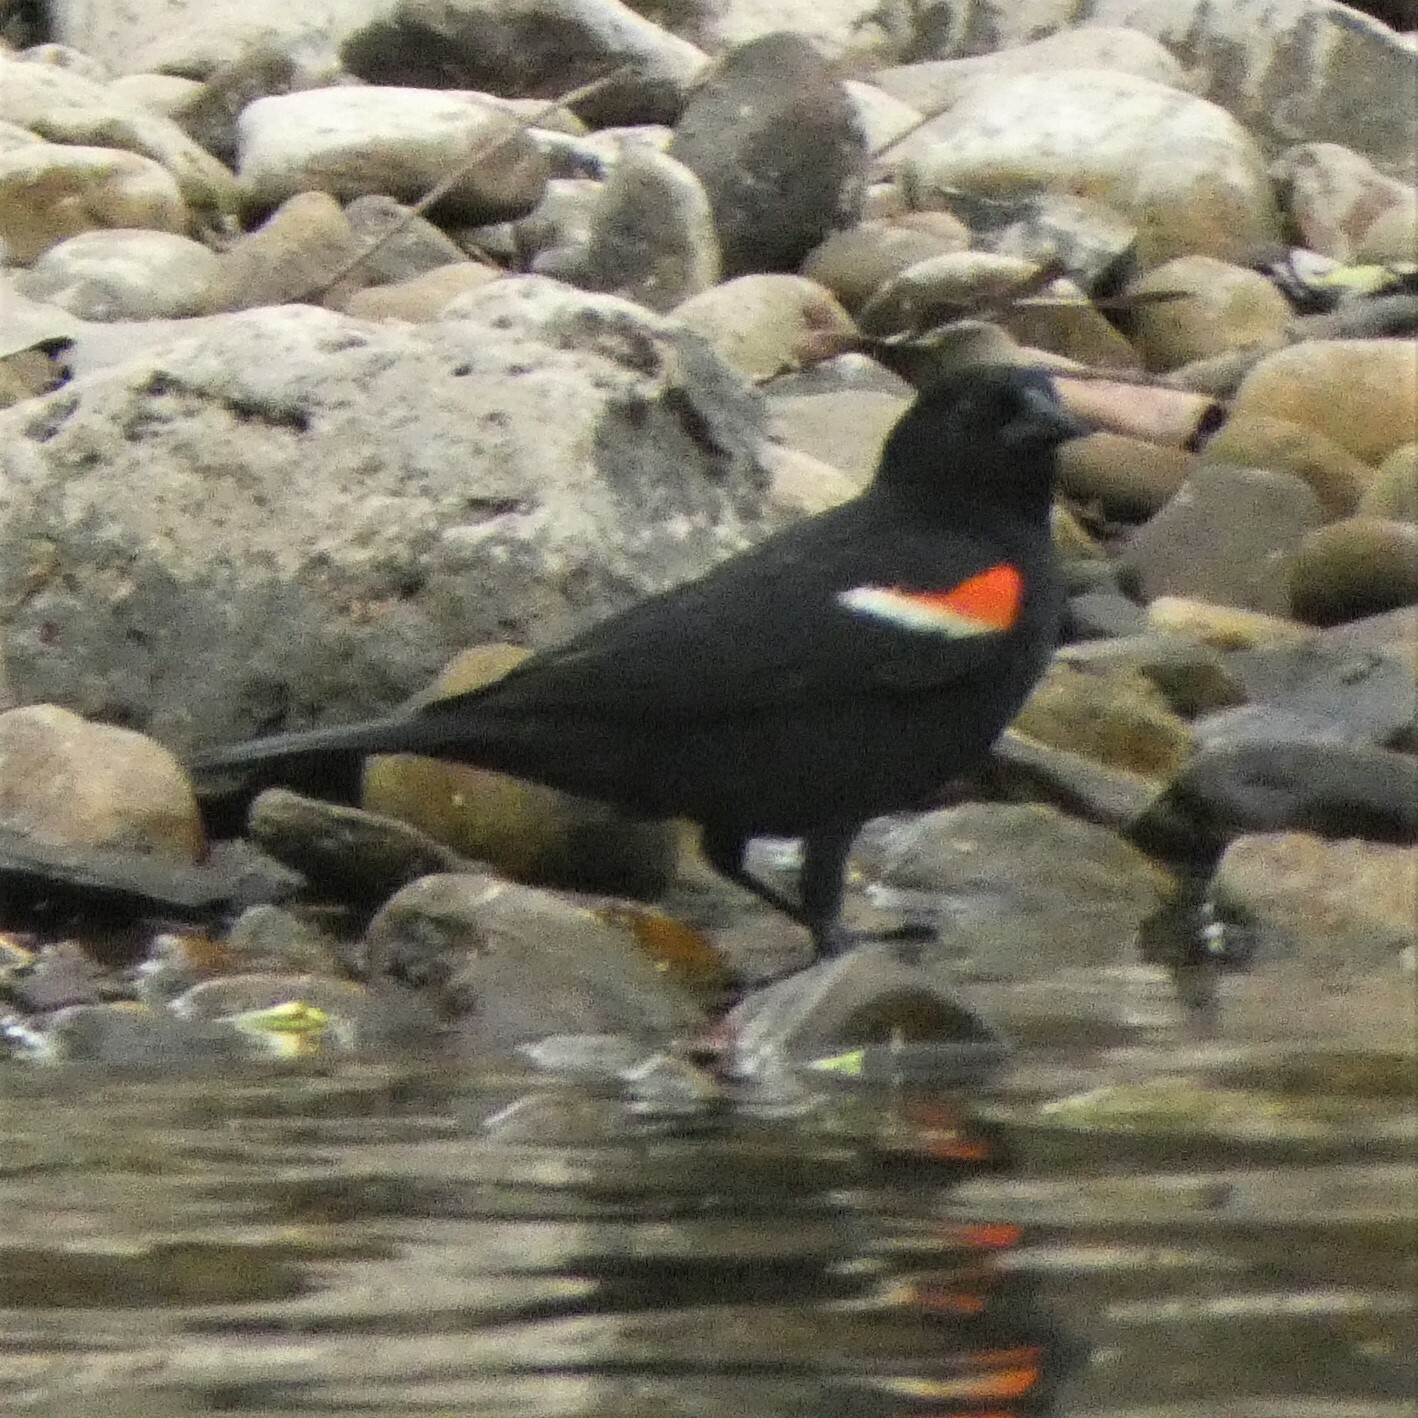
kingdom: Animalia
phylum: Chordata
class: Aves
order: Passeriformes
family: Icteridae
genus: Agelaius
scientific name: Agelaius phoeniceus
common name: Red-winged blackbird
